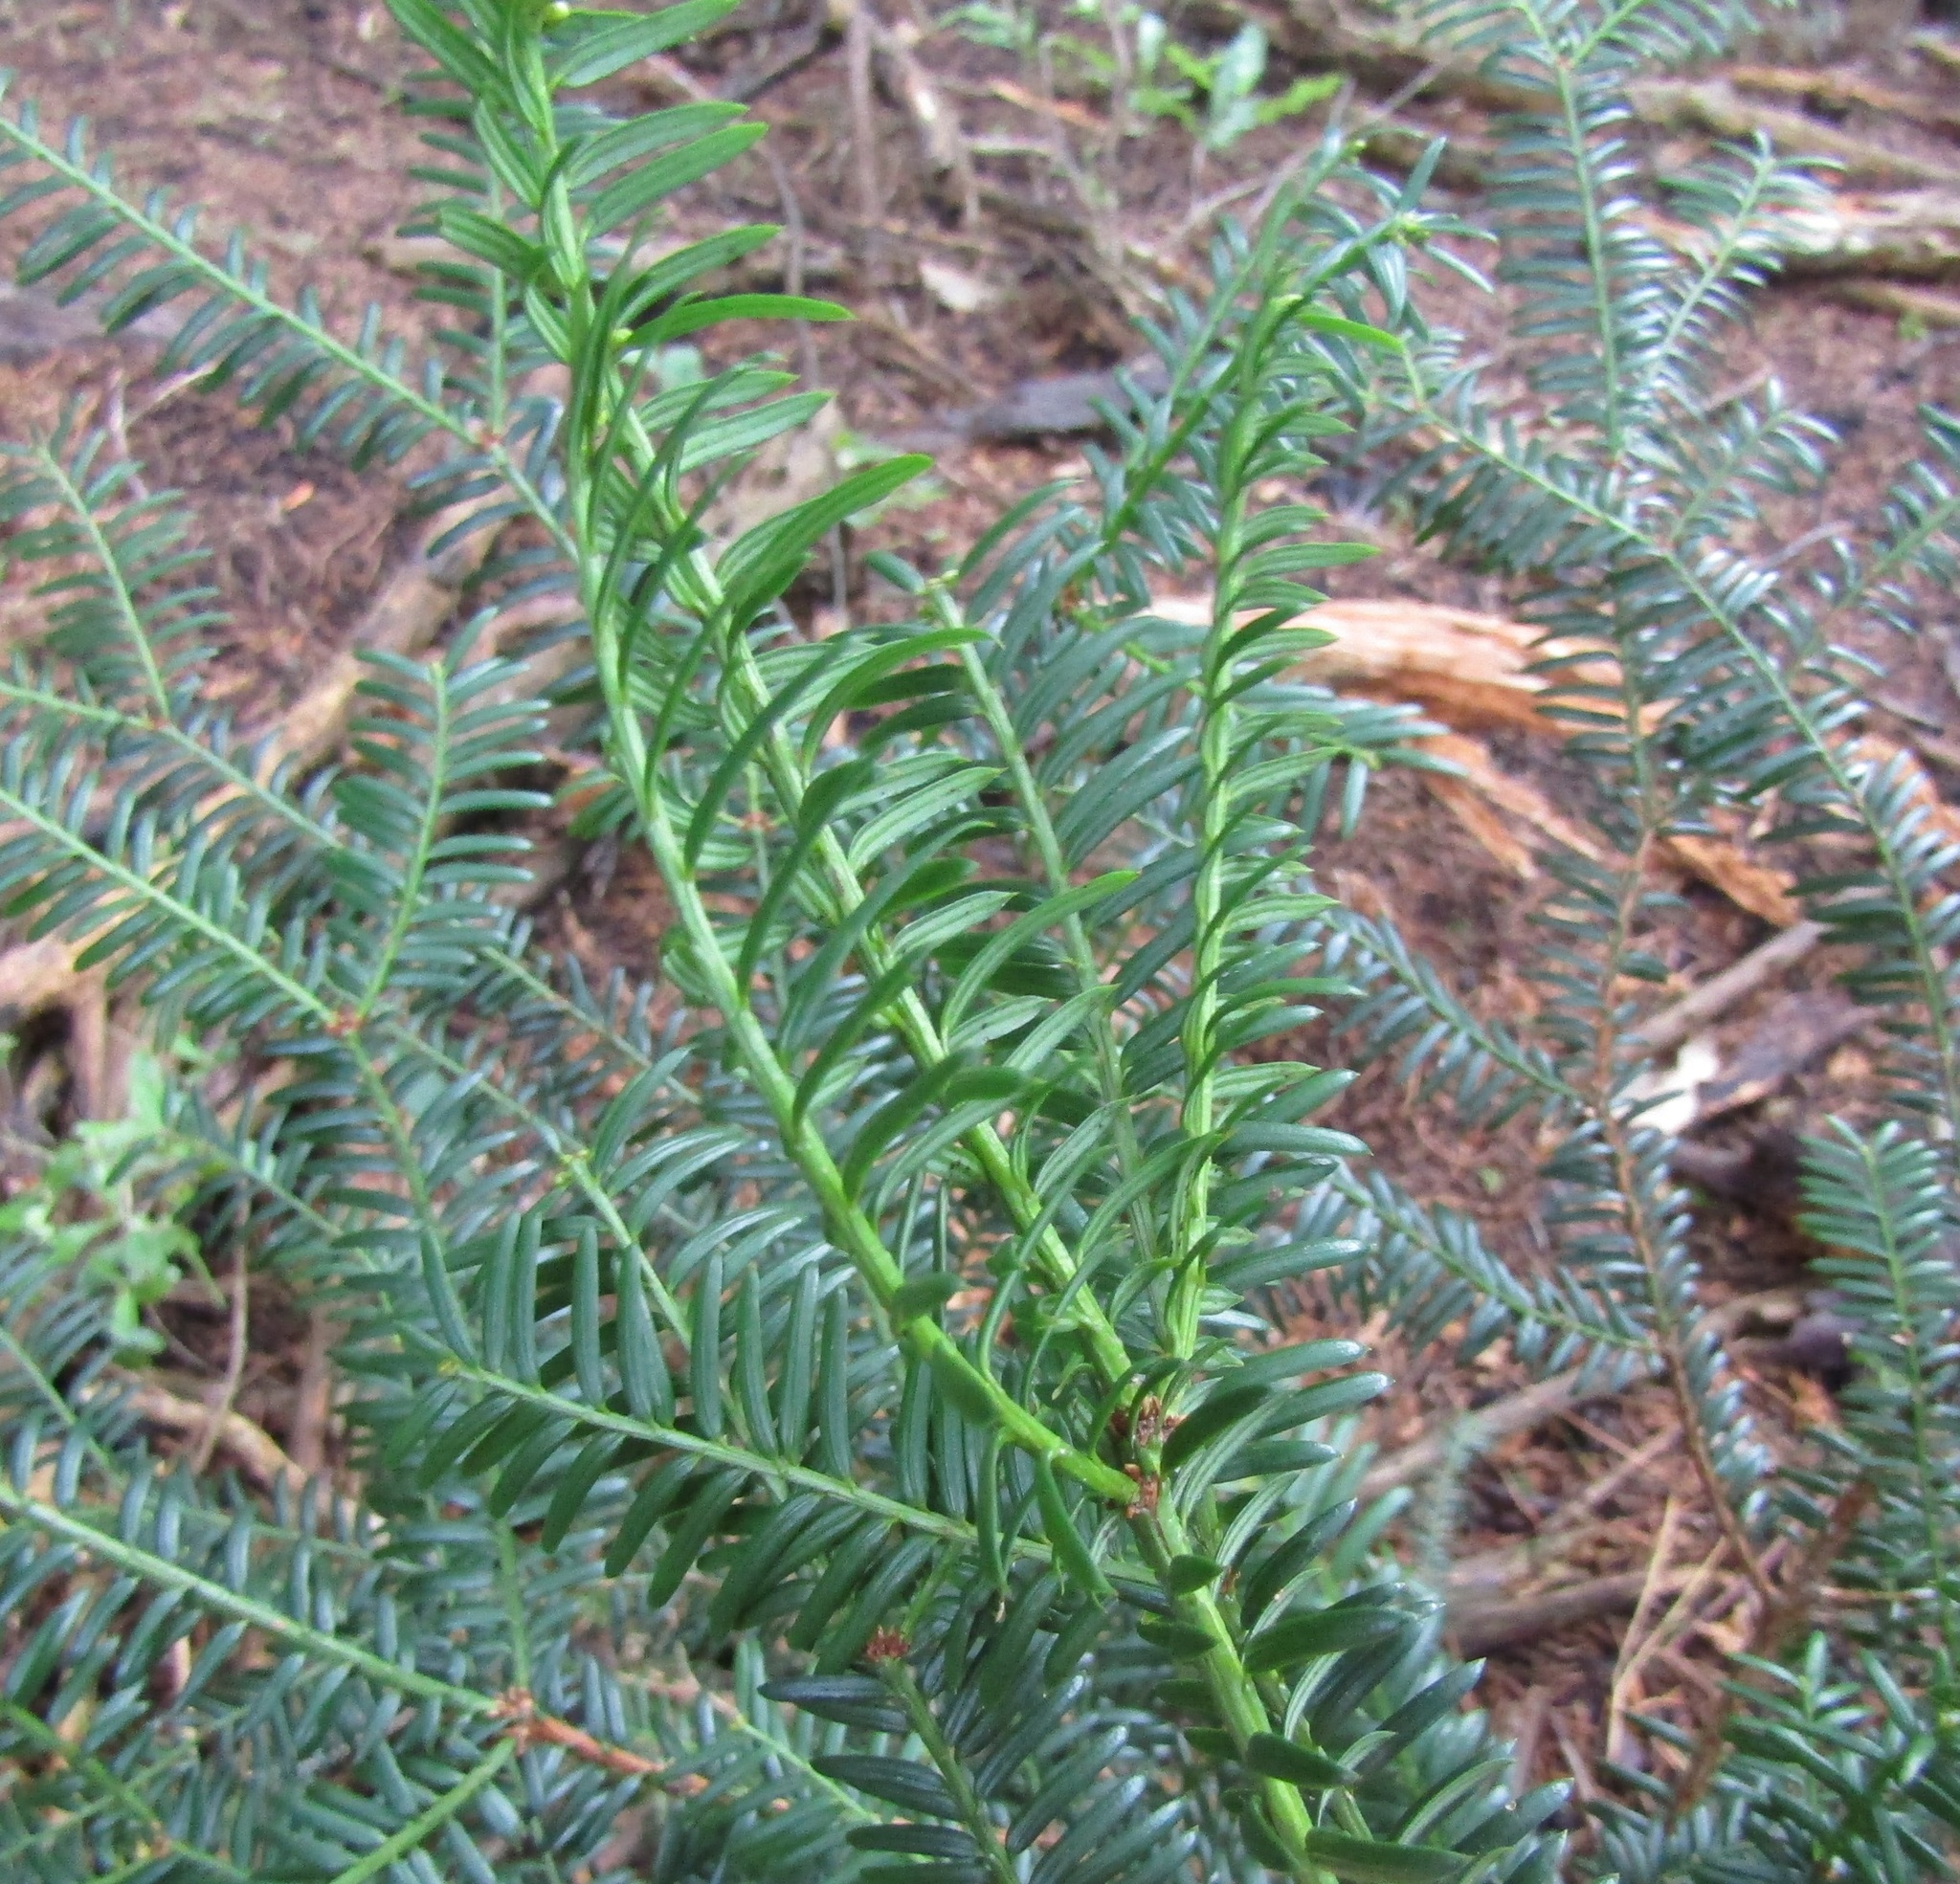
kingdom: Plantae
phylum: Tracheophyta
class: Pinopsida
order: Pinales
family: Taxaceae
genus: Taxus
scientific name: Taxus baccata
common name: Yew
